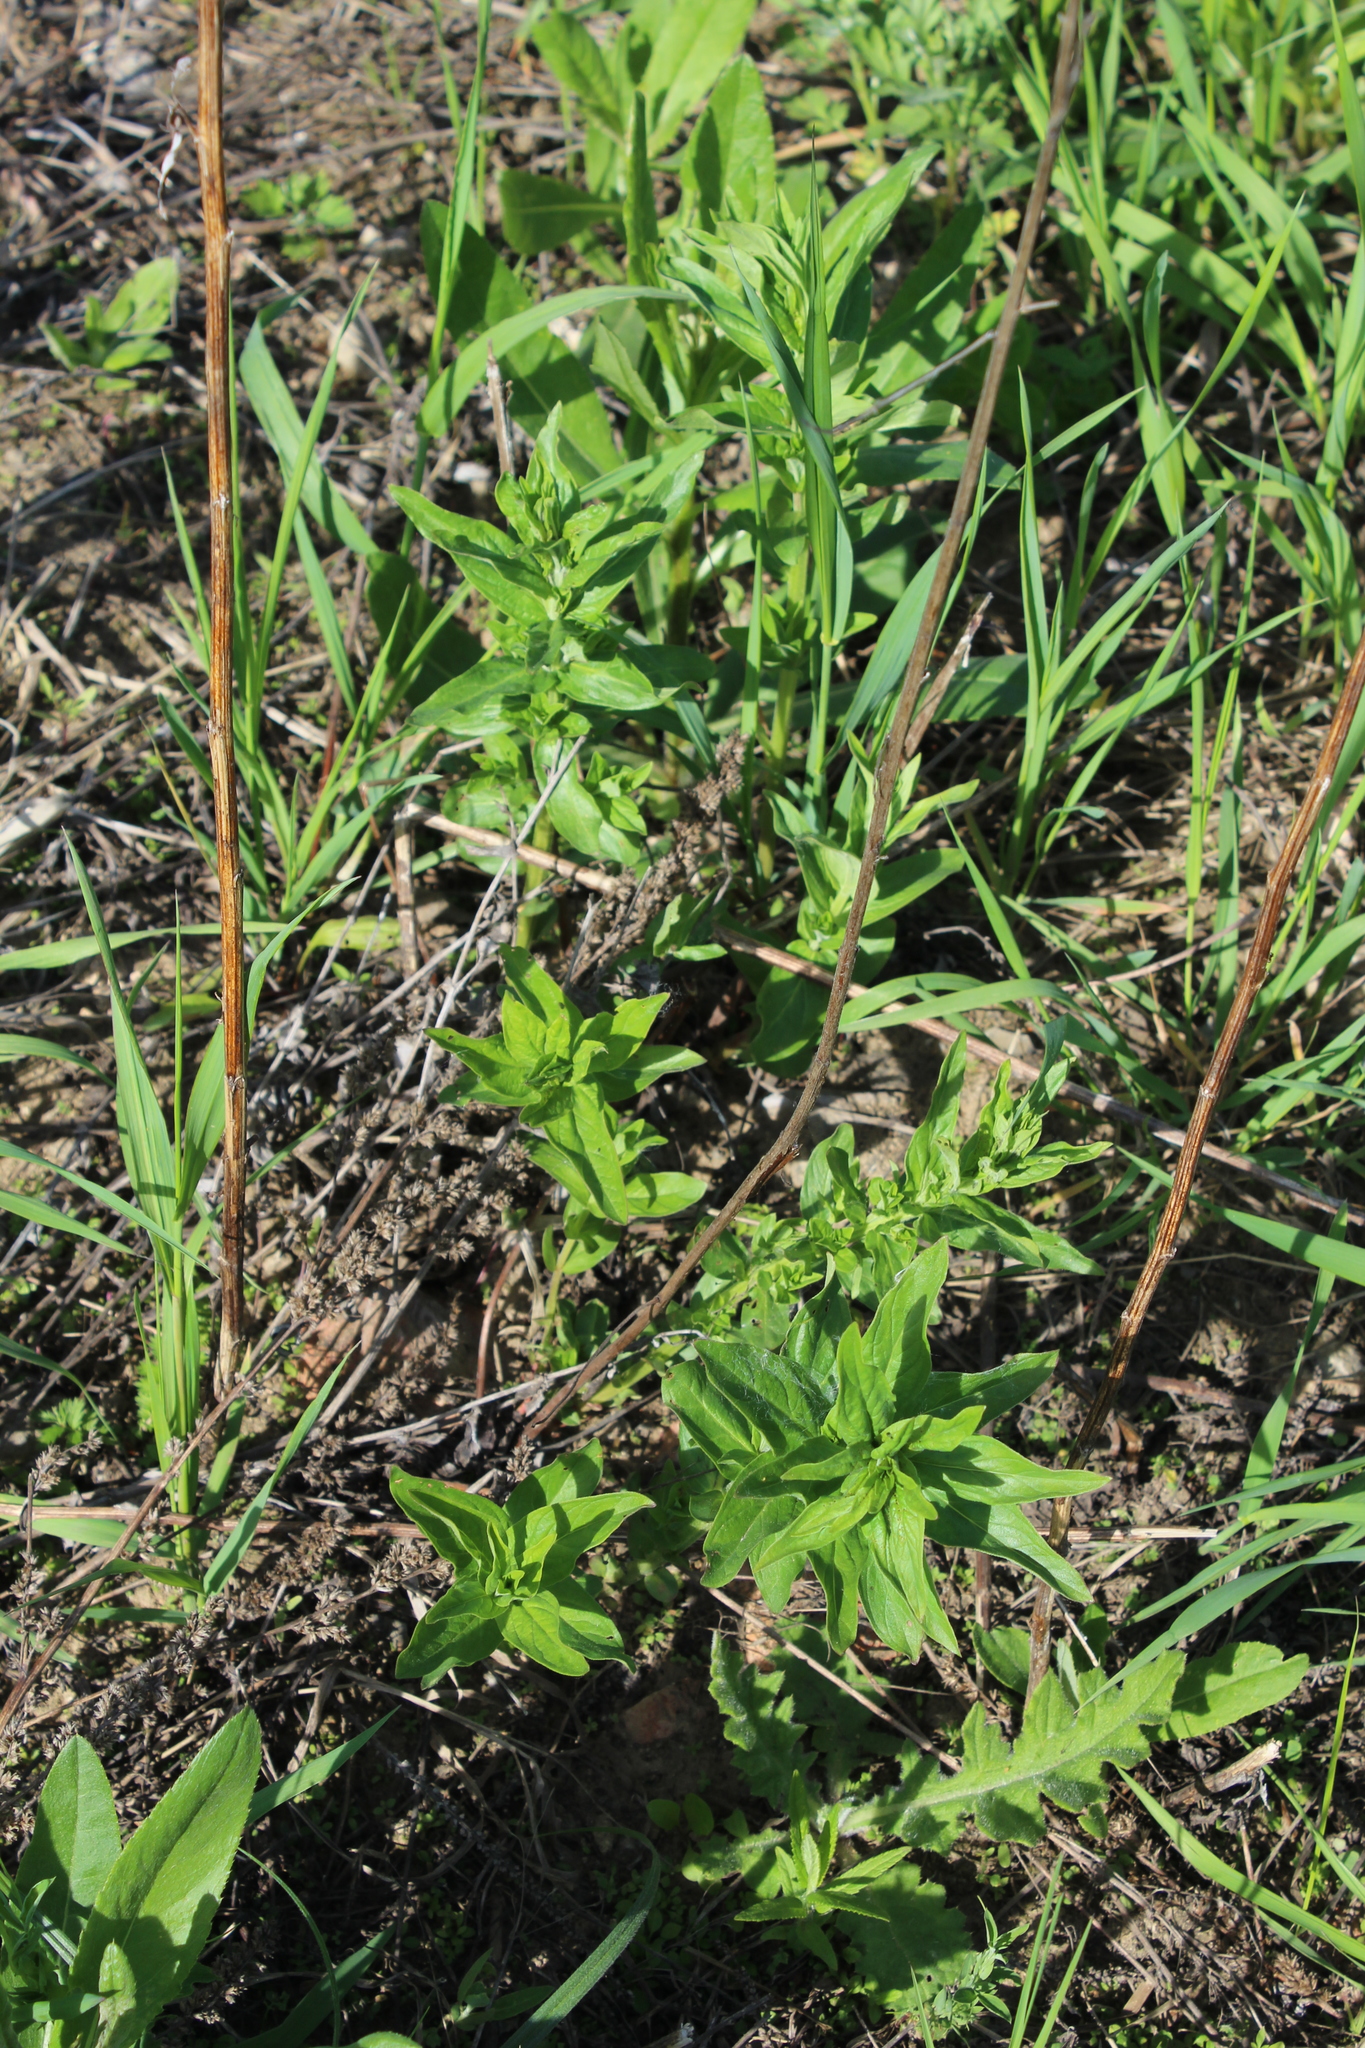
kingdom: Plantae
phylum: Tracheophyta
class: Magnoliopsida
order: Myrtales
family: Lythraceae
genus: Lythrum
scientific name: Lythrum salicaria
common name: Purple loosestrife
